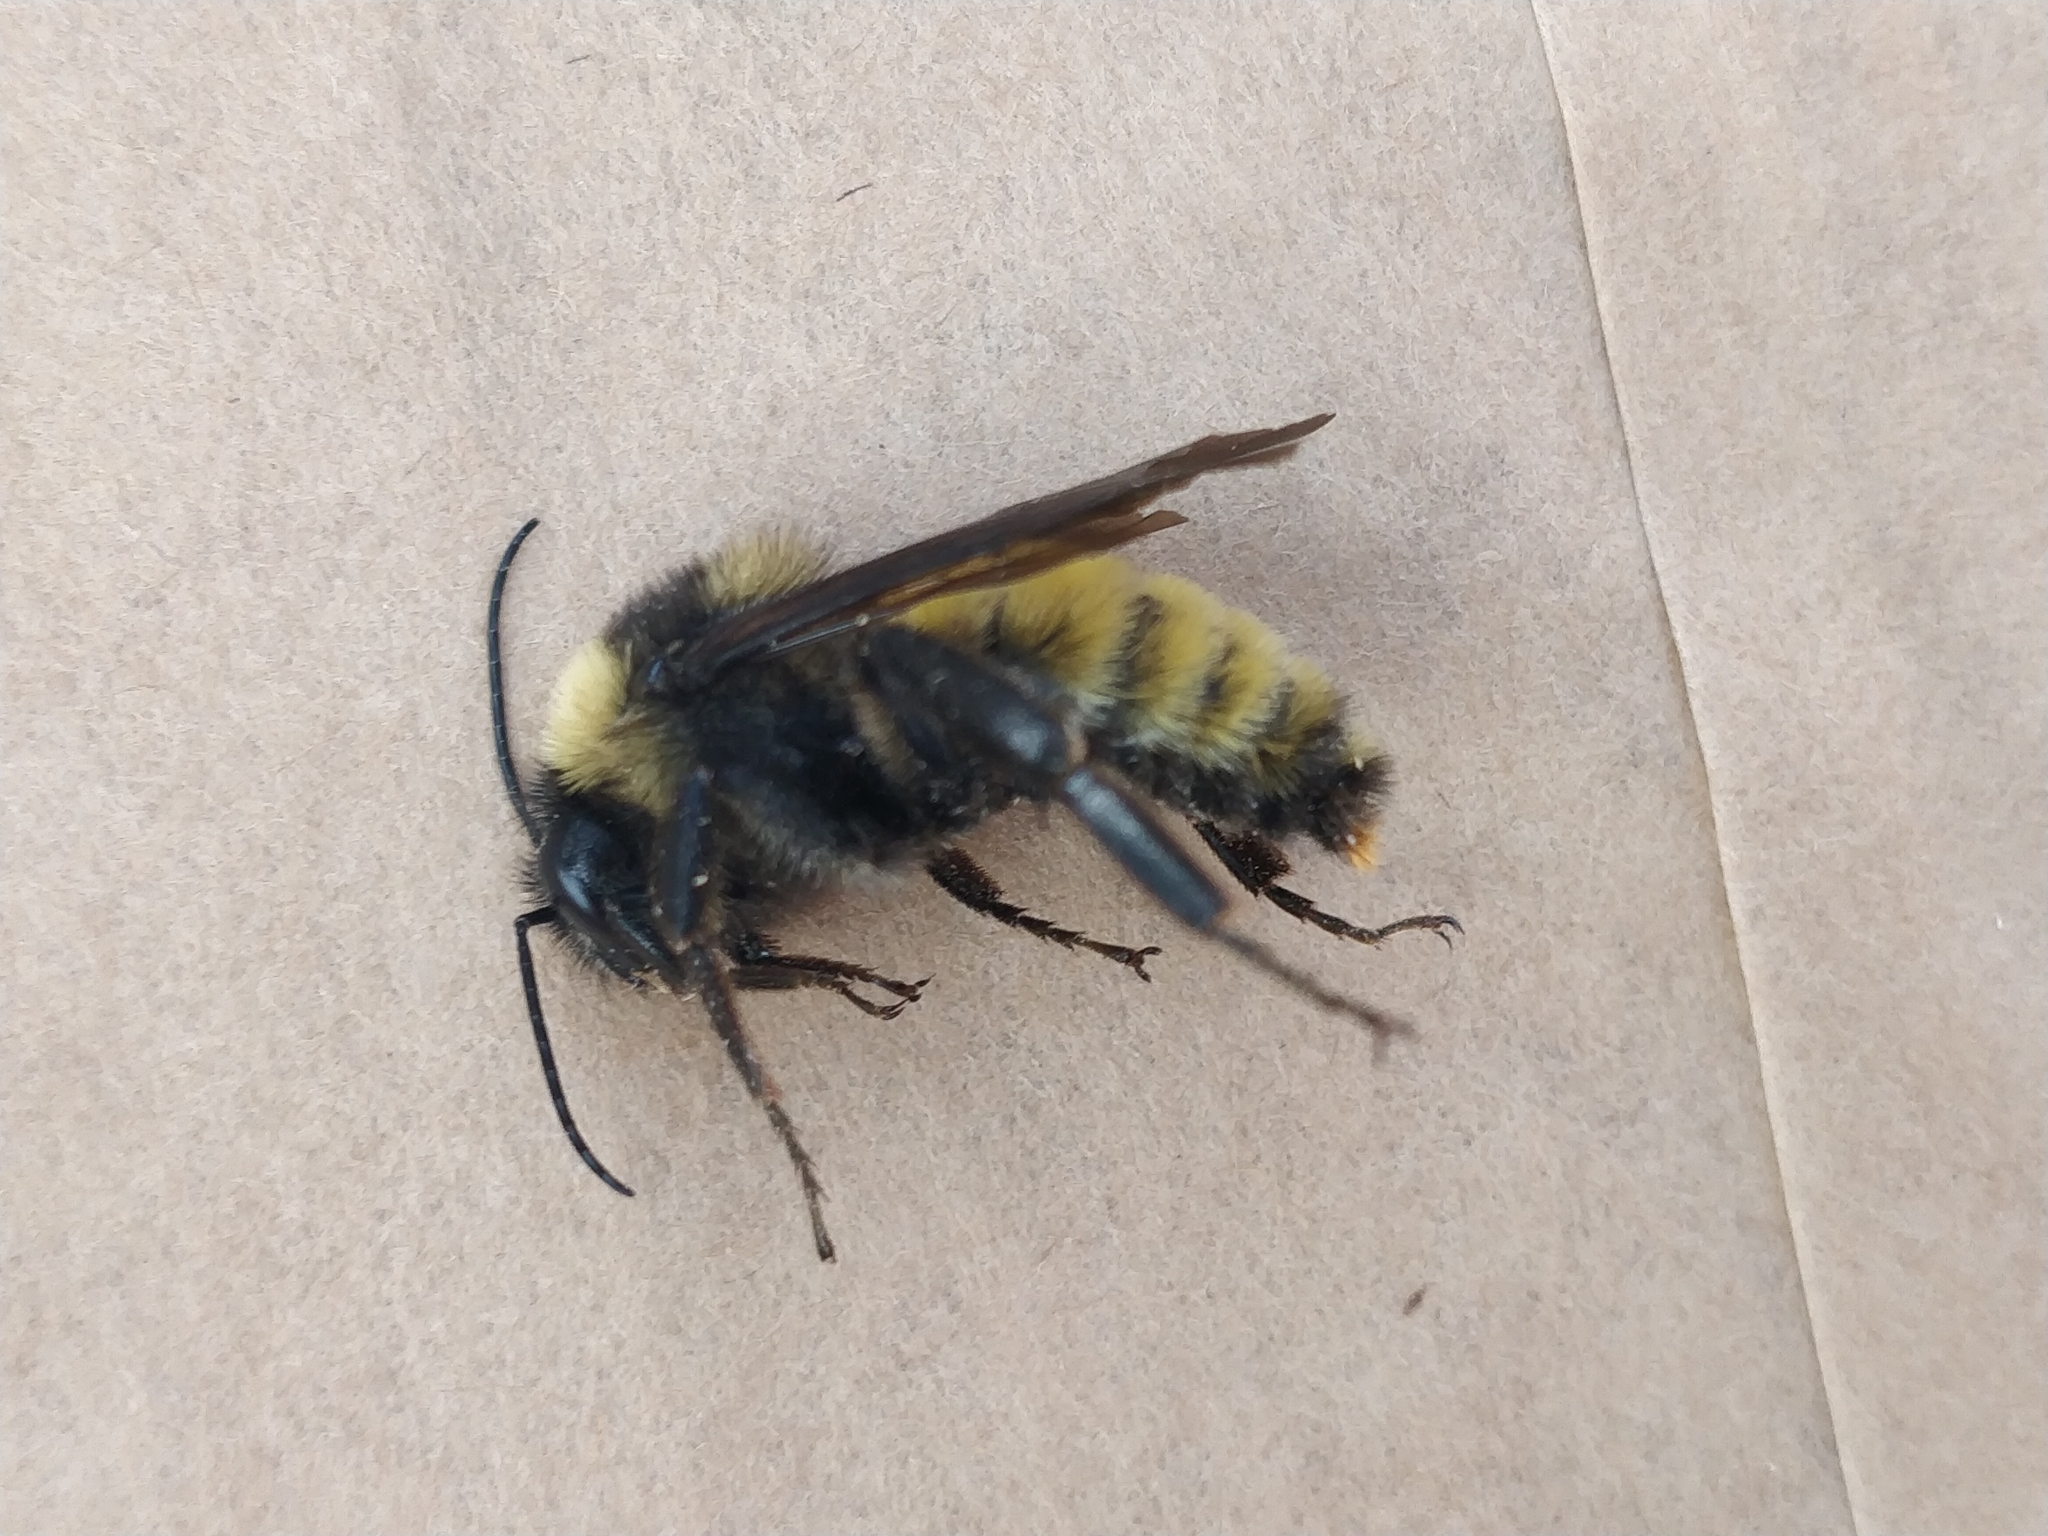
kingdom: Animalia
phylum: Arthropoda
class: Insecta
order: Hymenoptera
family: Apidae
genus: Bombus
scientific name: Bombus pensylvanicus
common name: Bumble bee
